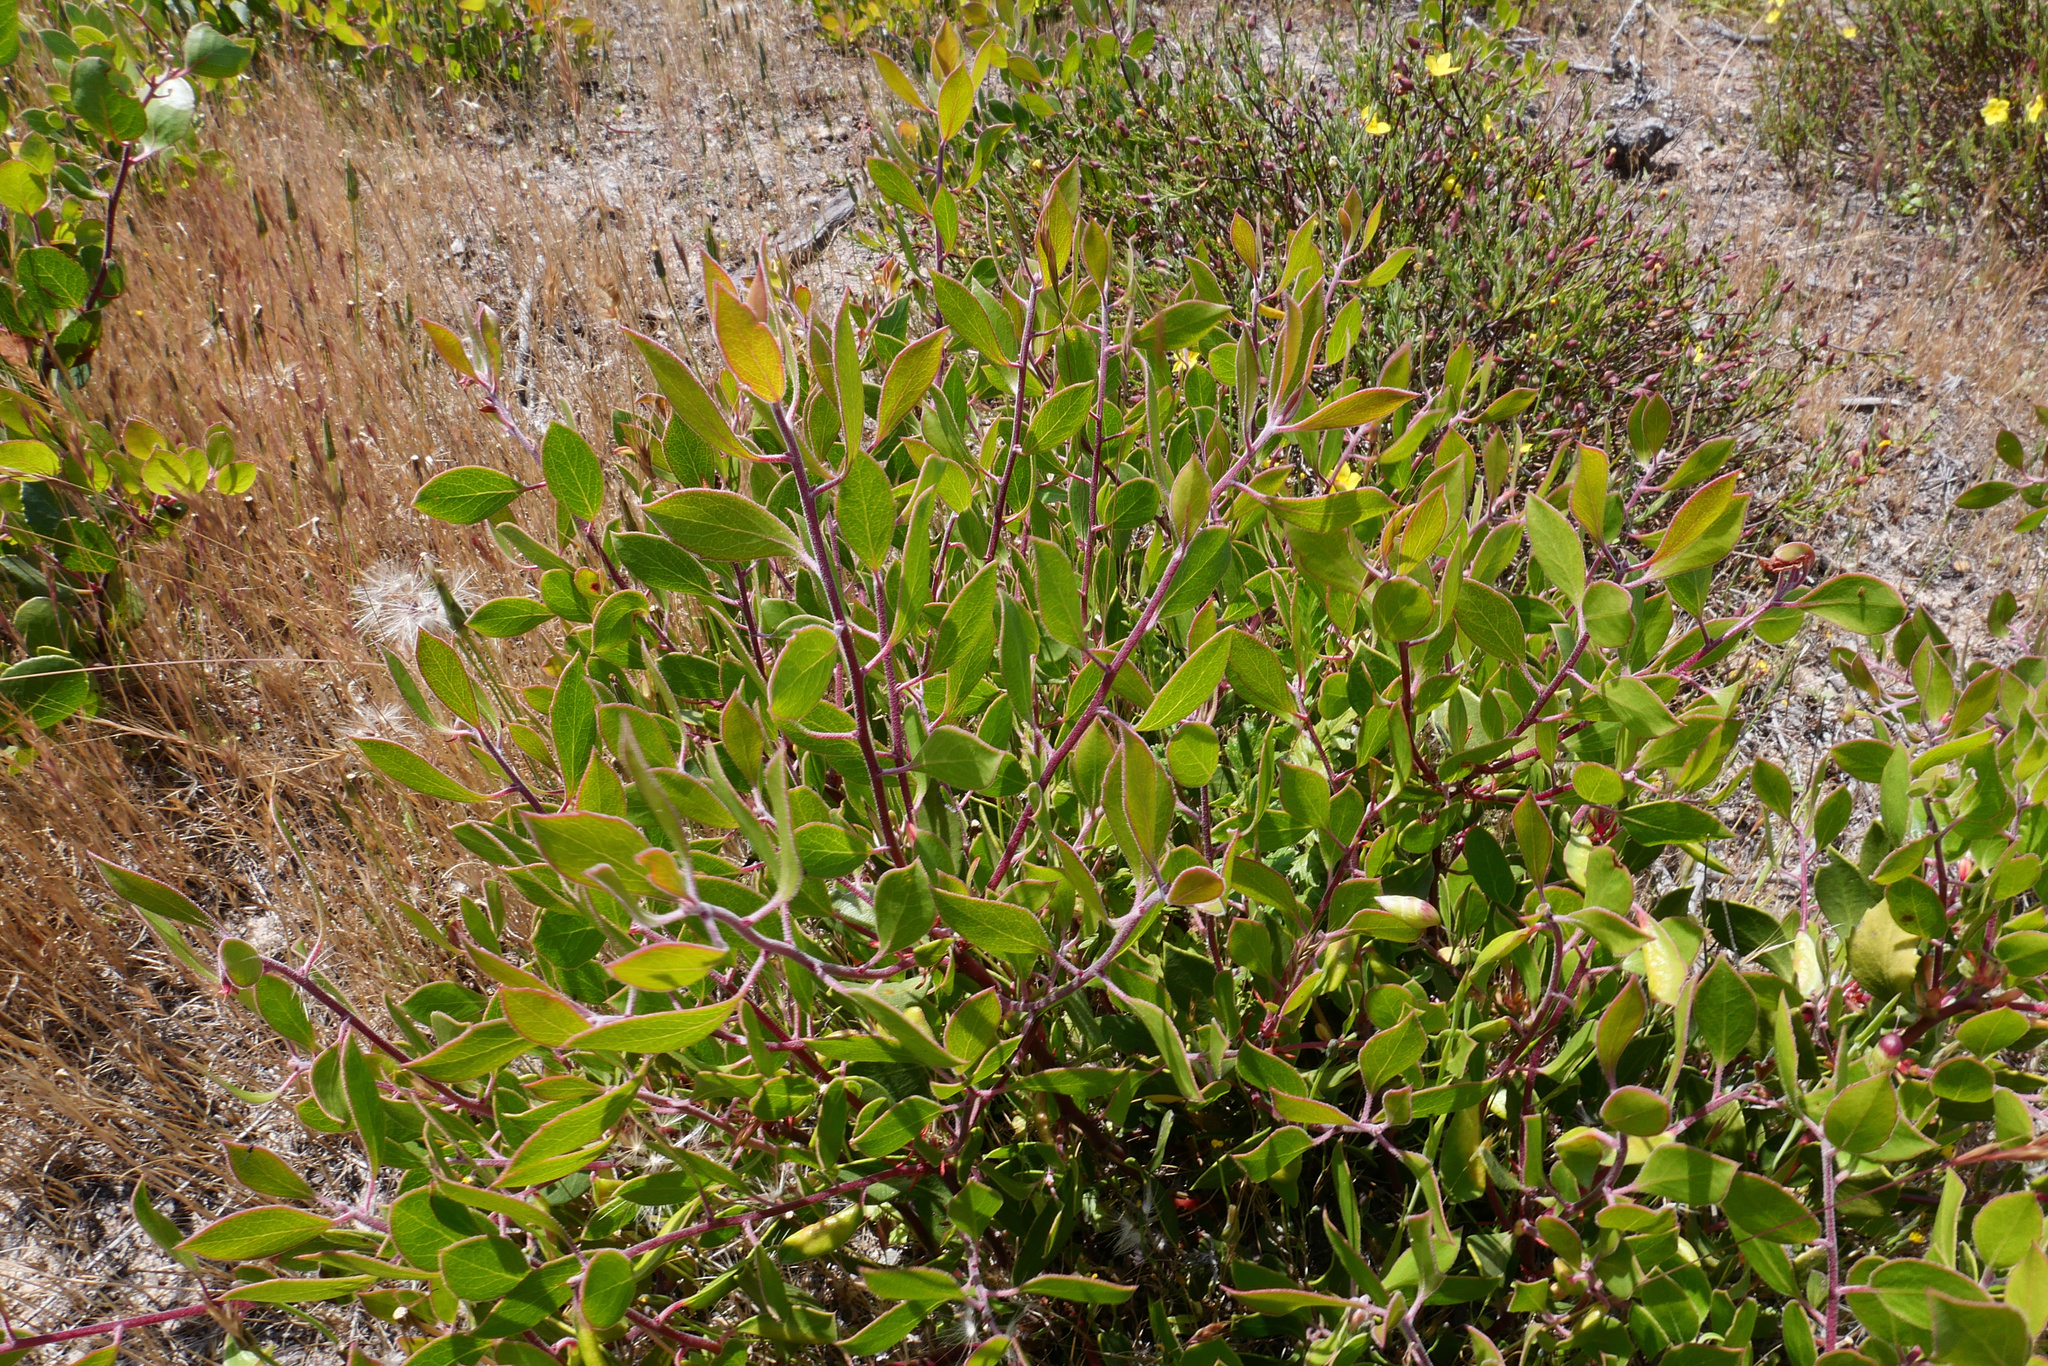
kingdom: Plantae
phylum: Tracheophyta
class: Magnoliopsida
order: Ericales
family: Ericaceae
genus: Arctostaphylos
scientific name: Arctostaphylos hookeri
